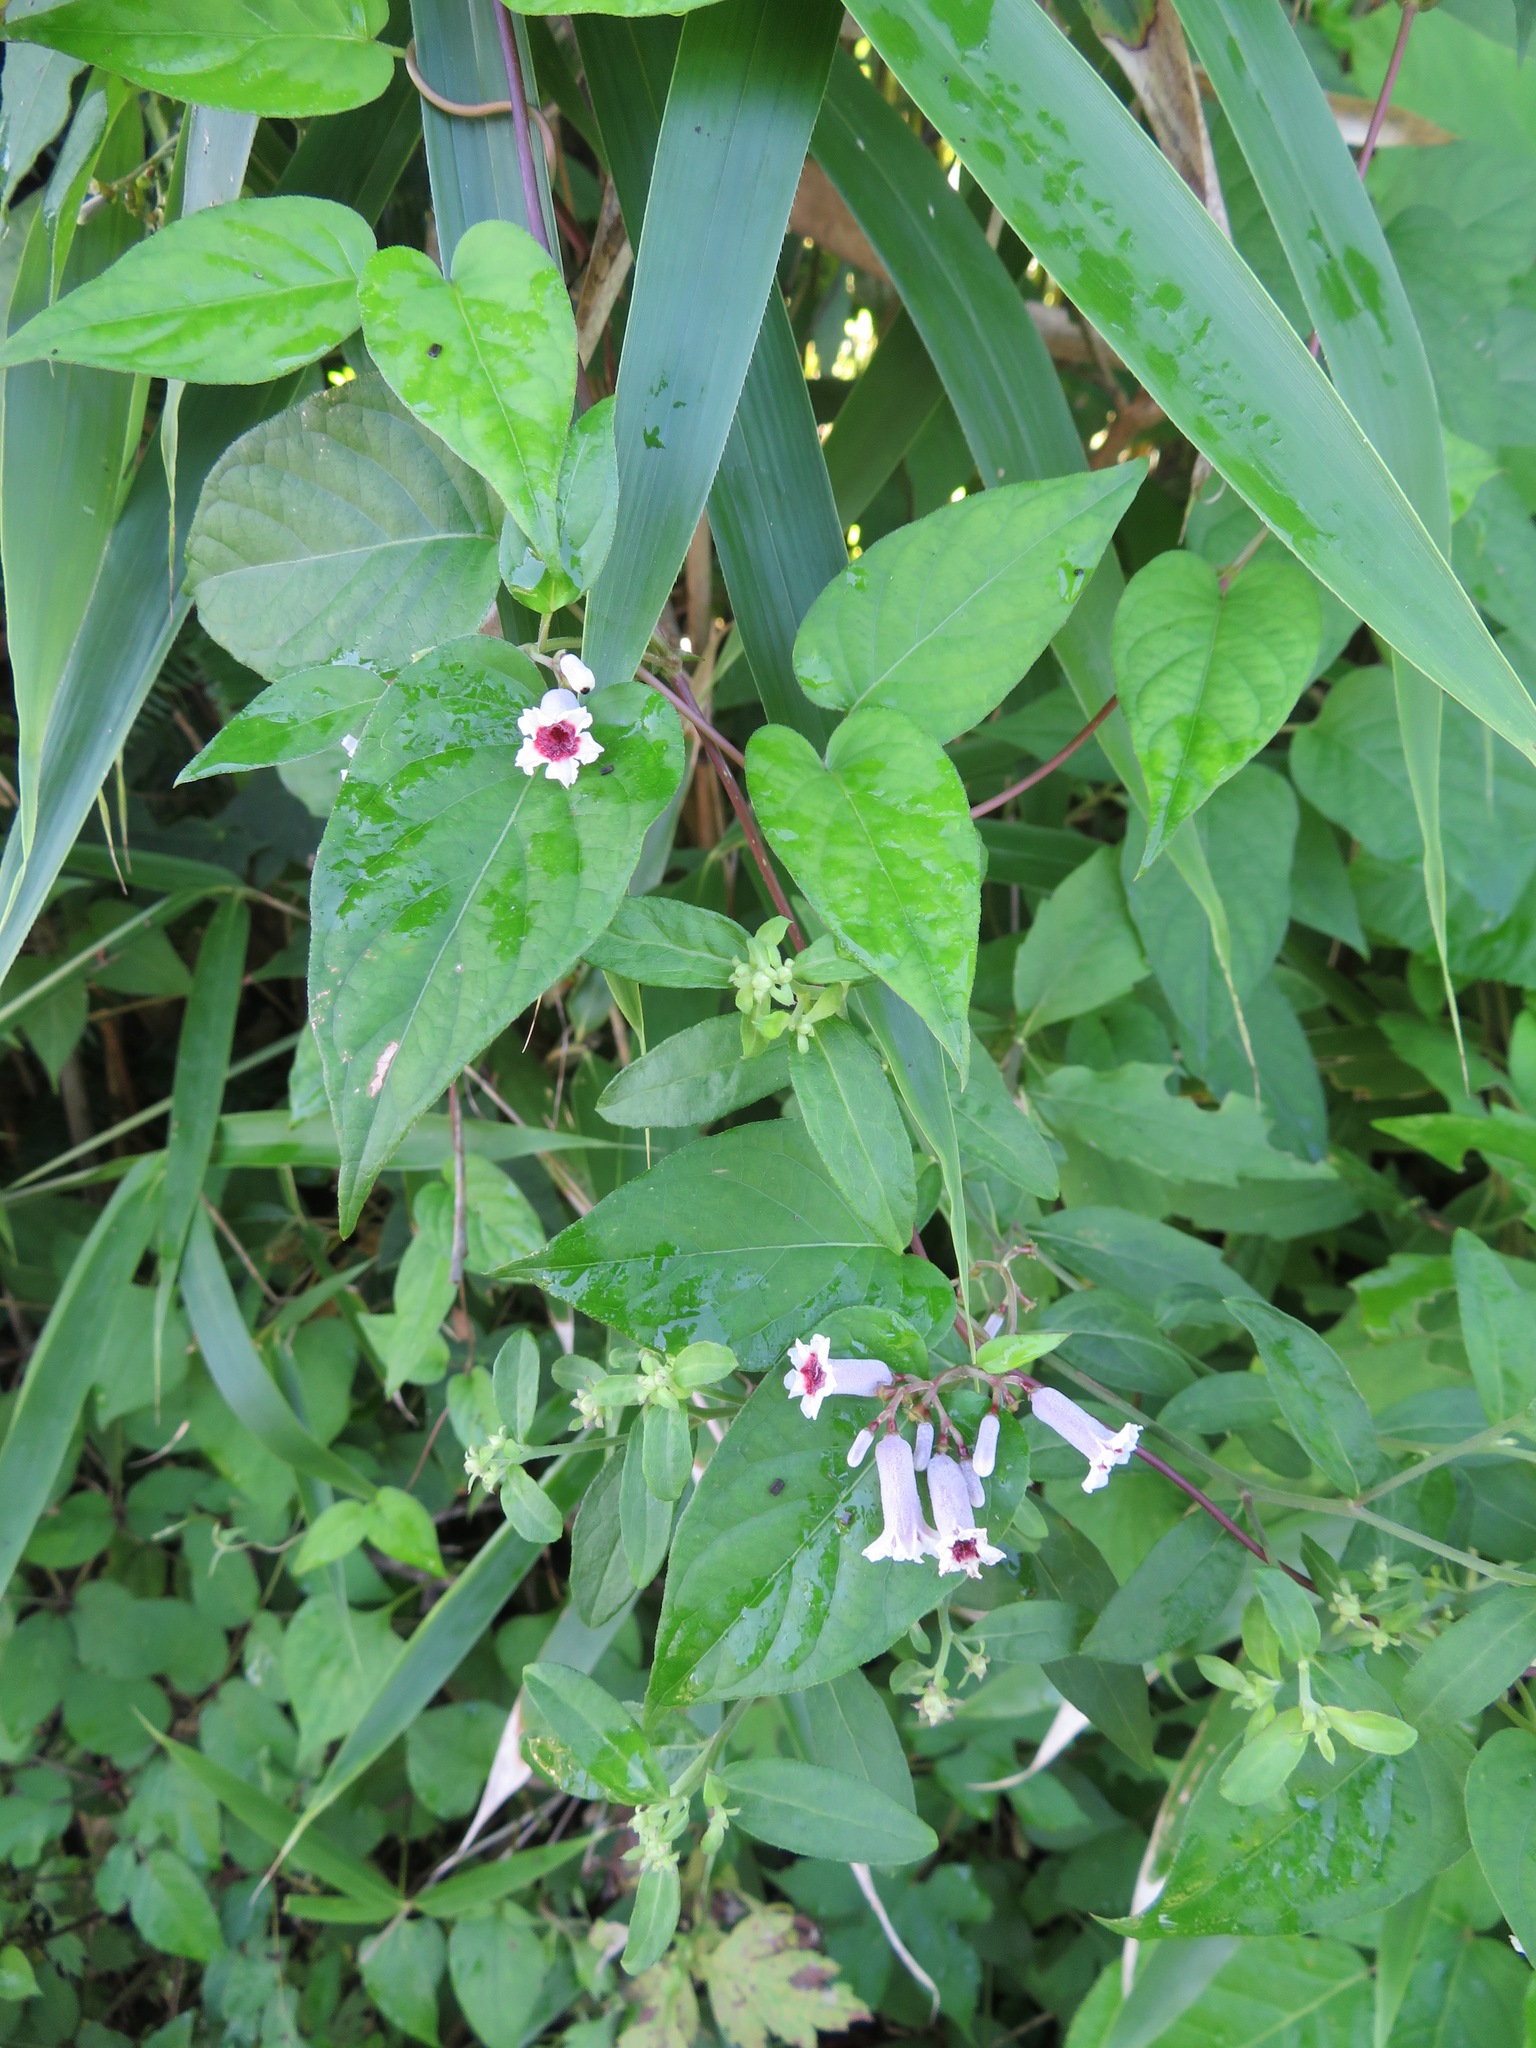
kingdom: Plantae
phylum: Tracheophyta
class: Magnoliopsida
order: Gentianales
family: Rubiaceae
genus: Paederia
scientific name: Paederia foetida
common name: Stinkvine
